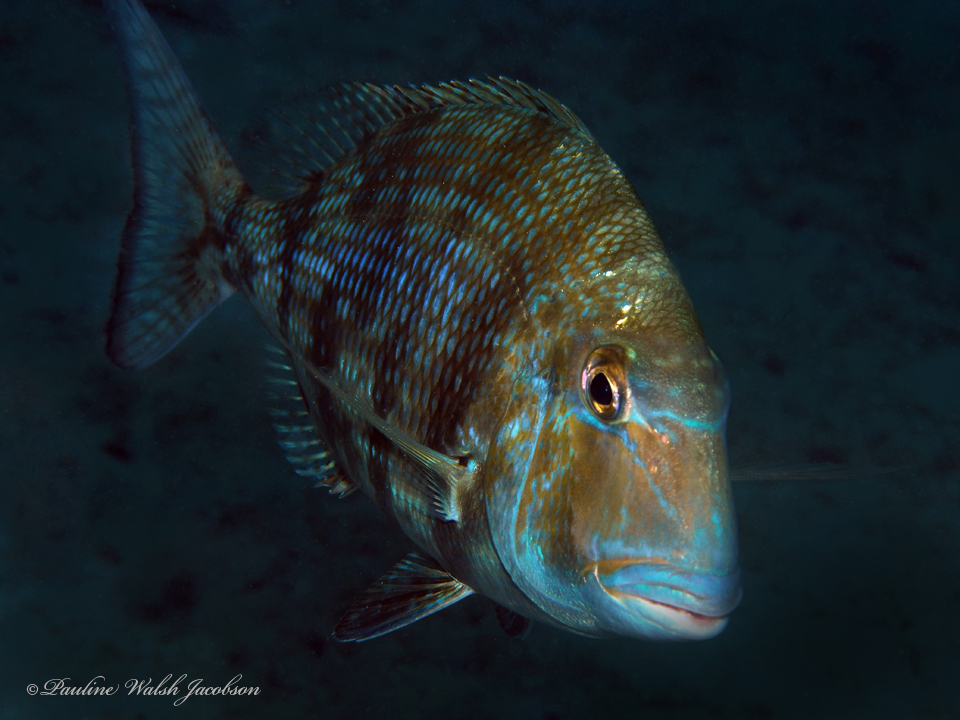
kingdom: Animalia
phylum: Chordata
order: Perciformes
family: Sparidae
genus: Calamus
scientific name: Calamus penna
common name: Sheepshead porgy
